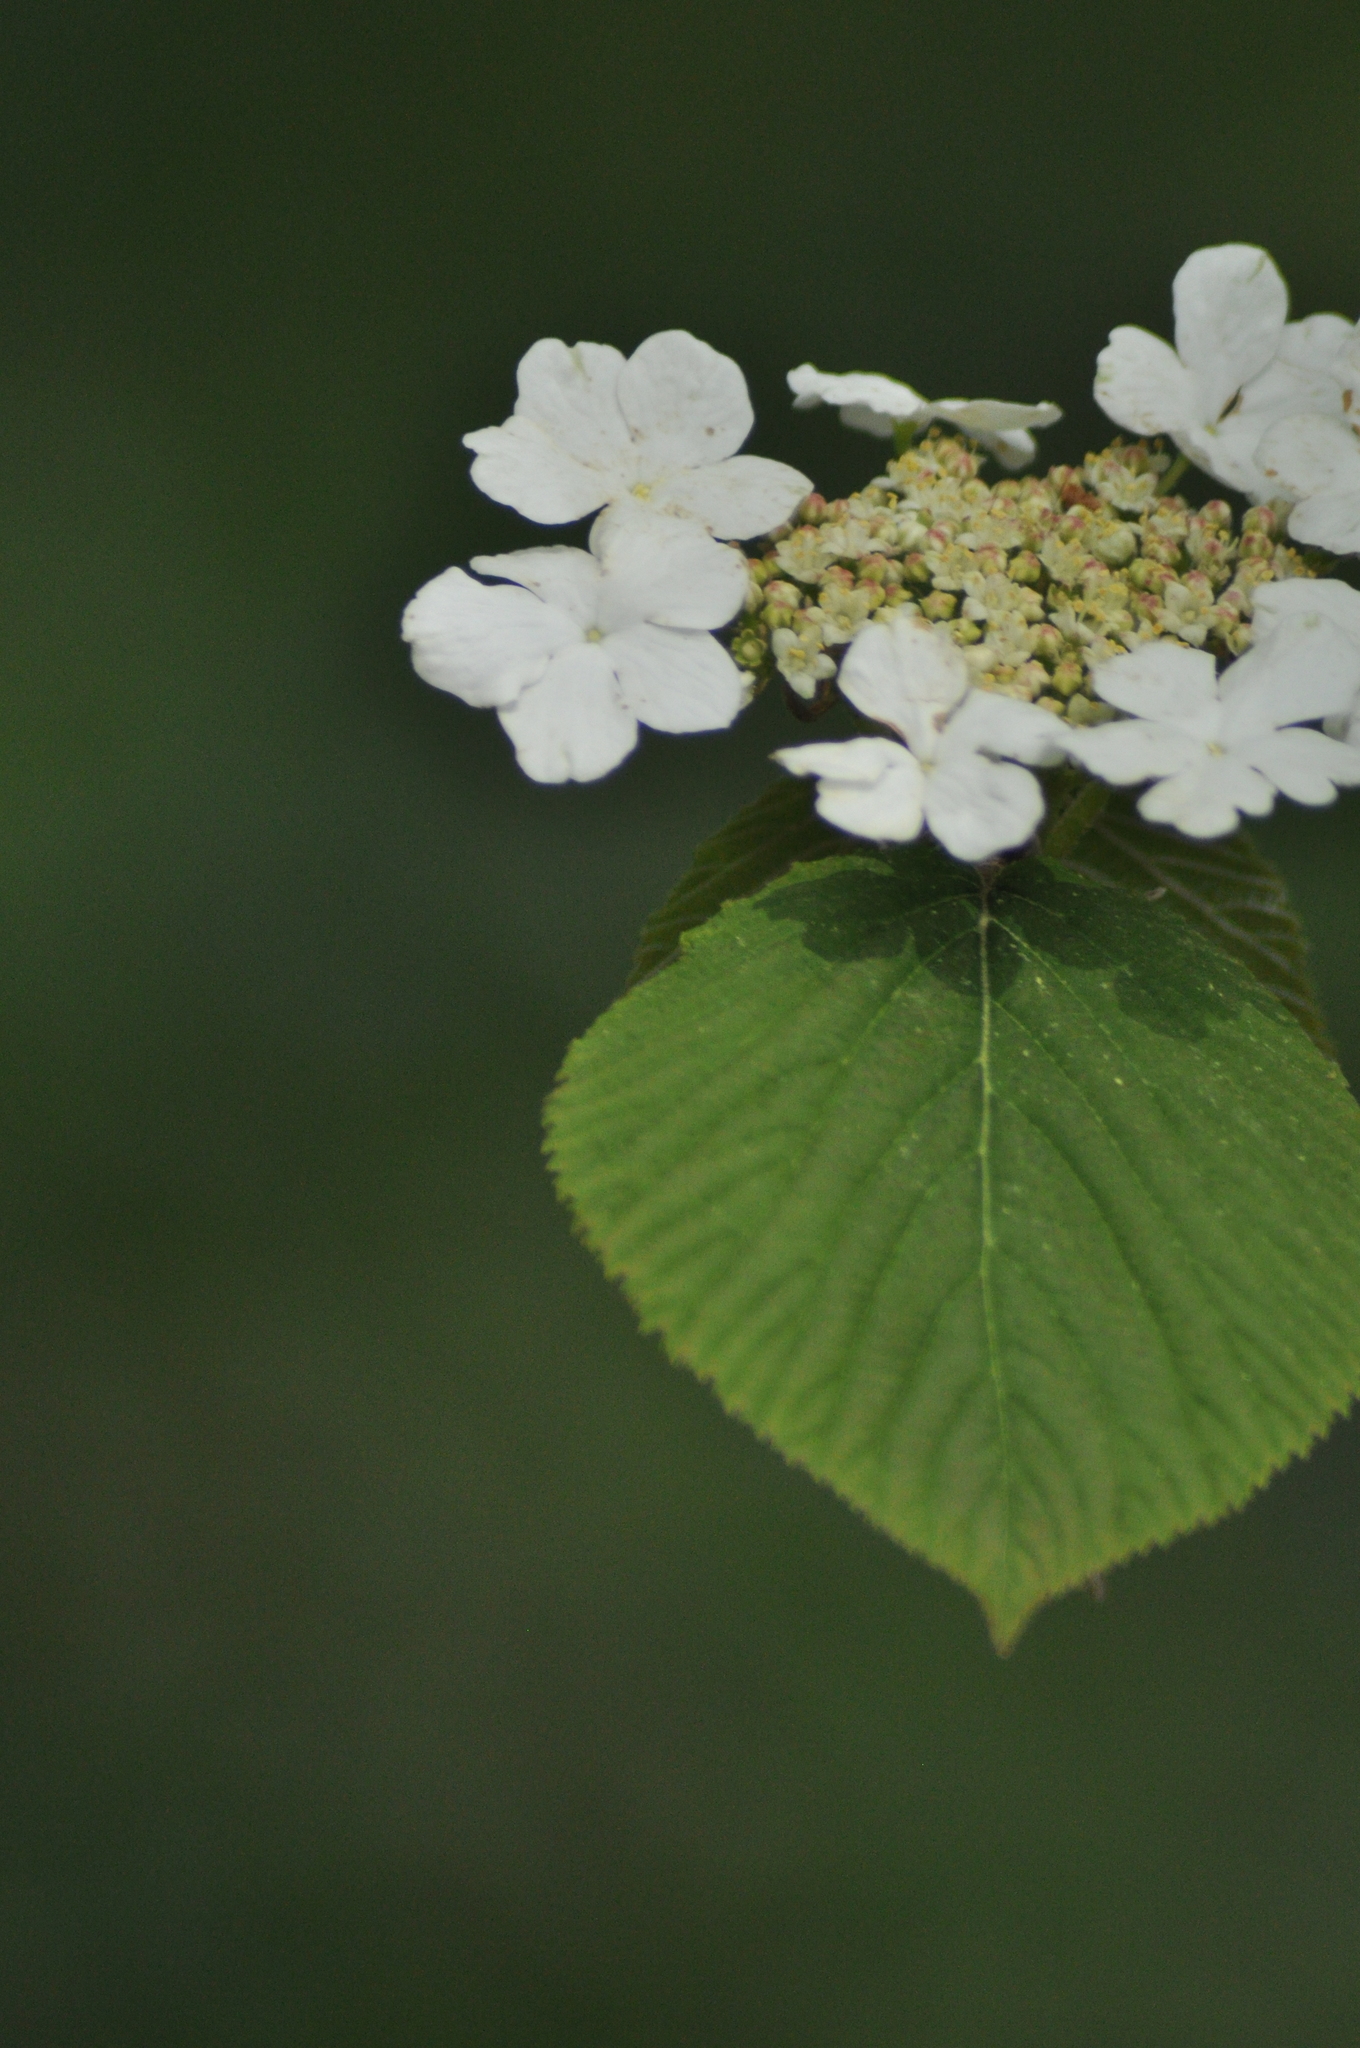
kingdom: Plantae
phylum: Tracheophyta
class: Magnoliopsida
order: Dipsacales
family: Viburnaceae
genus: Viburnum
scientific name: Viburnum lantanoides
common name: Hobblebush
